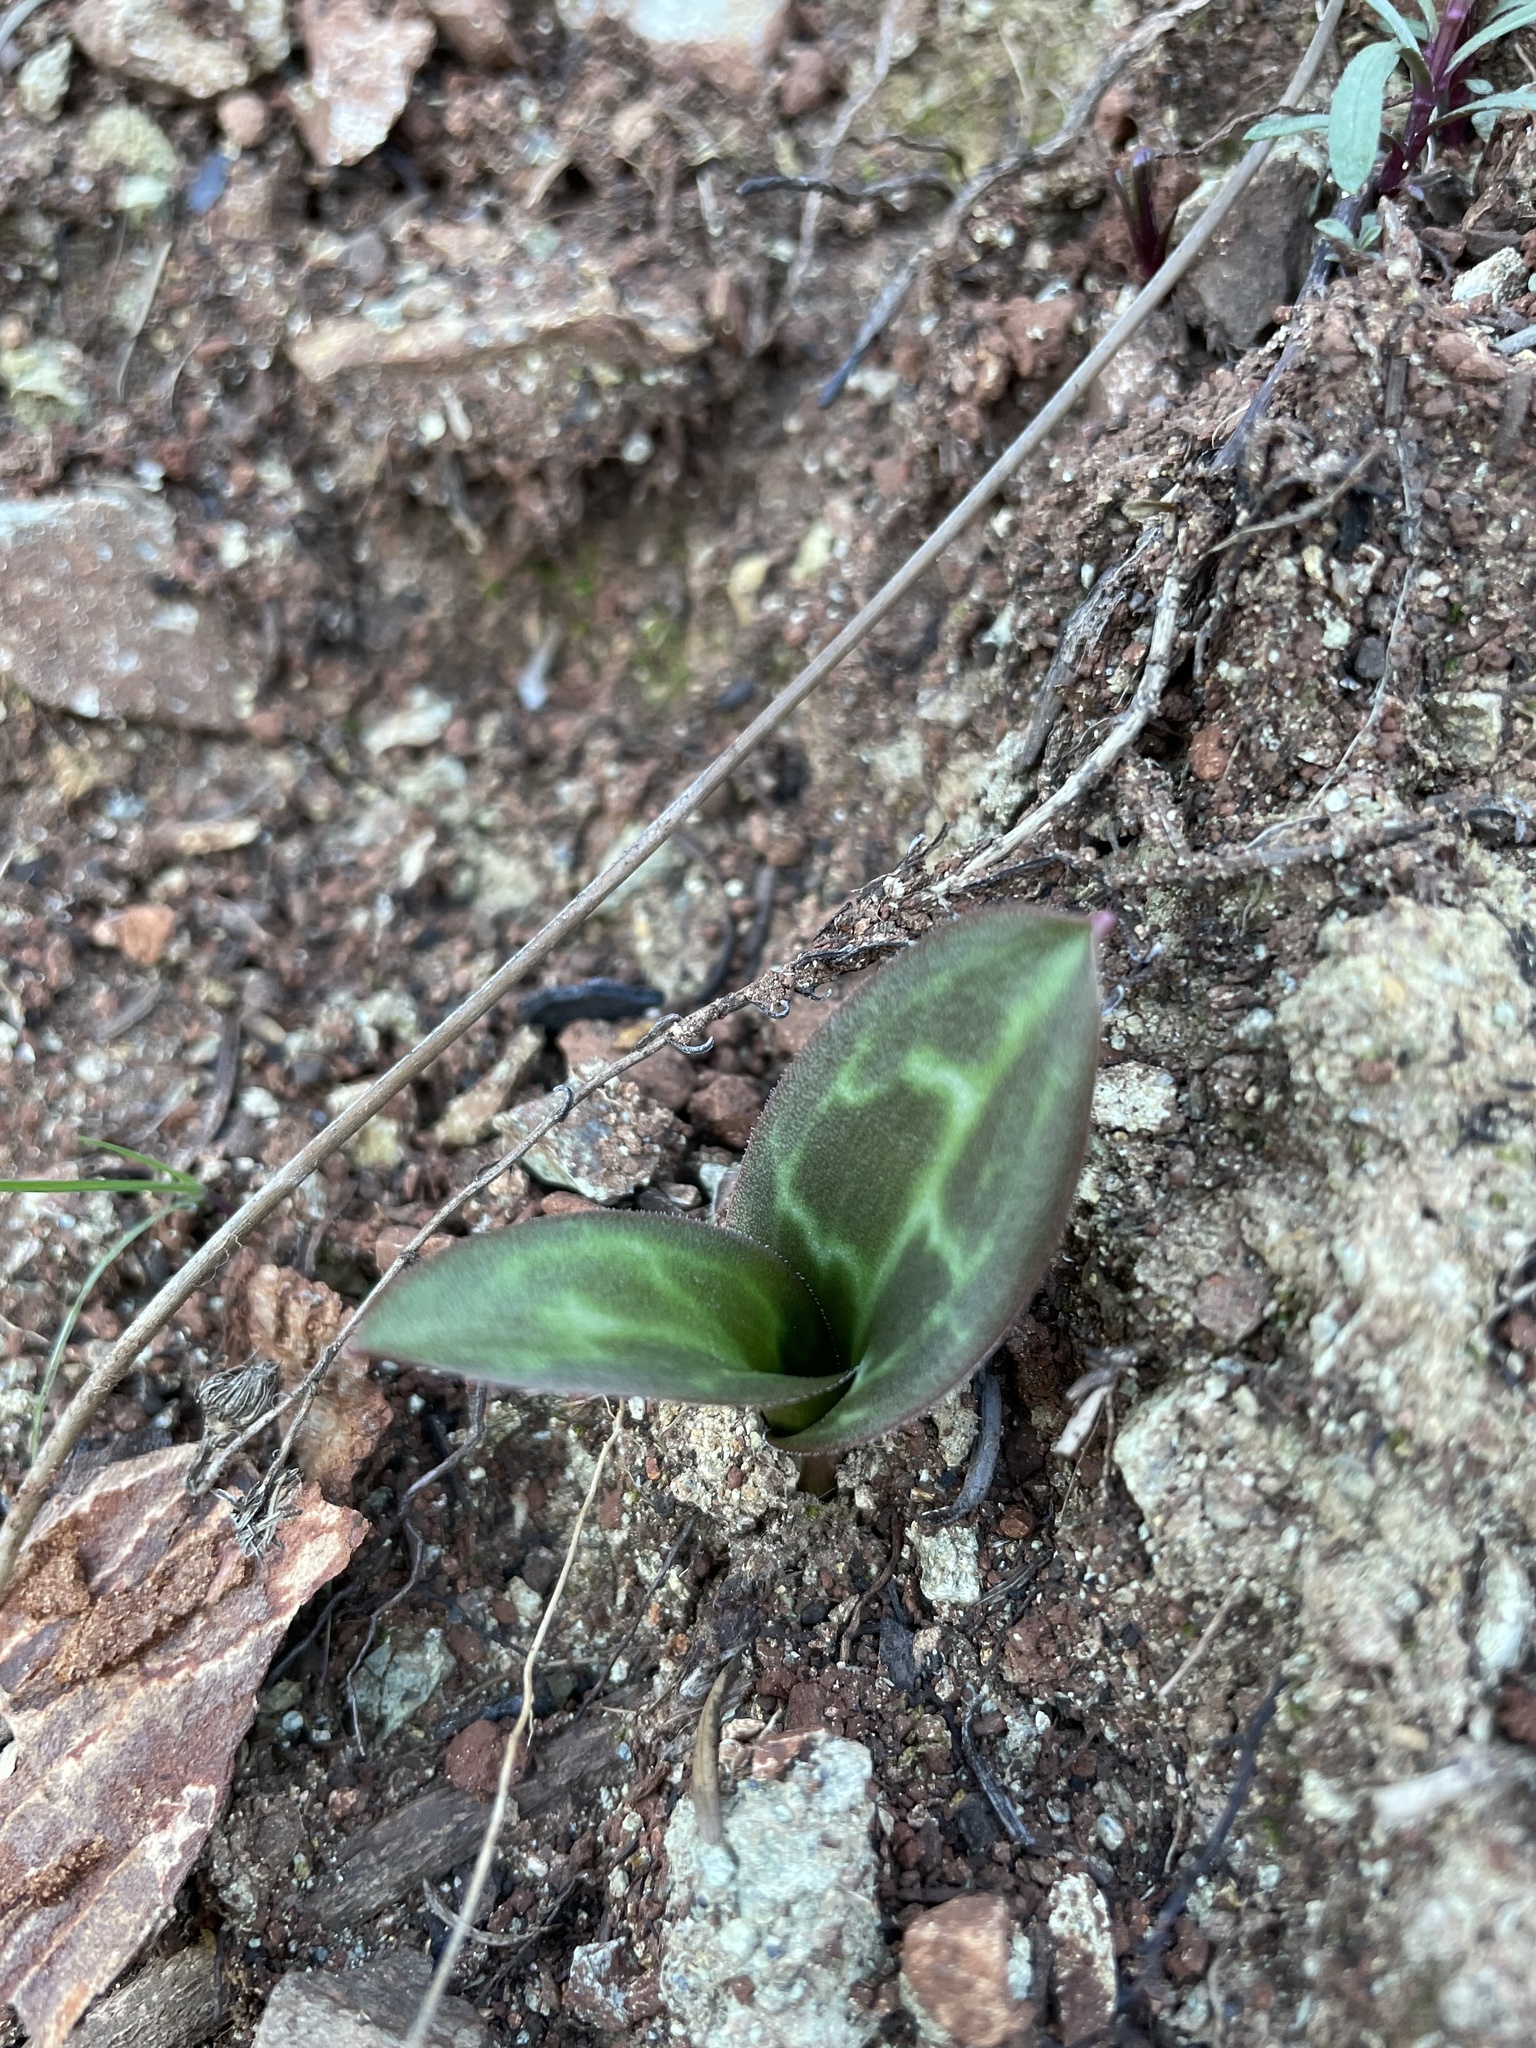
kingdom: Plantae
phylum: Tracheophyta
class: Liliopsida
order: Liliales
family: Liliaceae
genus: Erythronium
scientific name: Erythronium helenae
